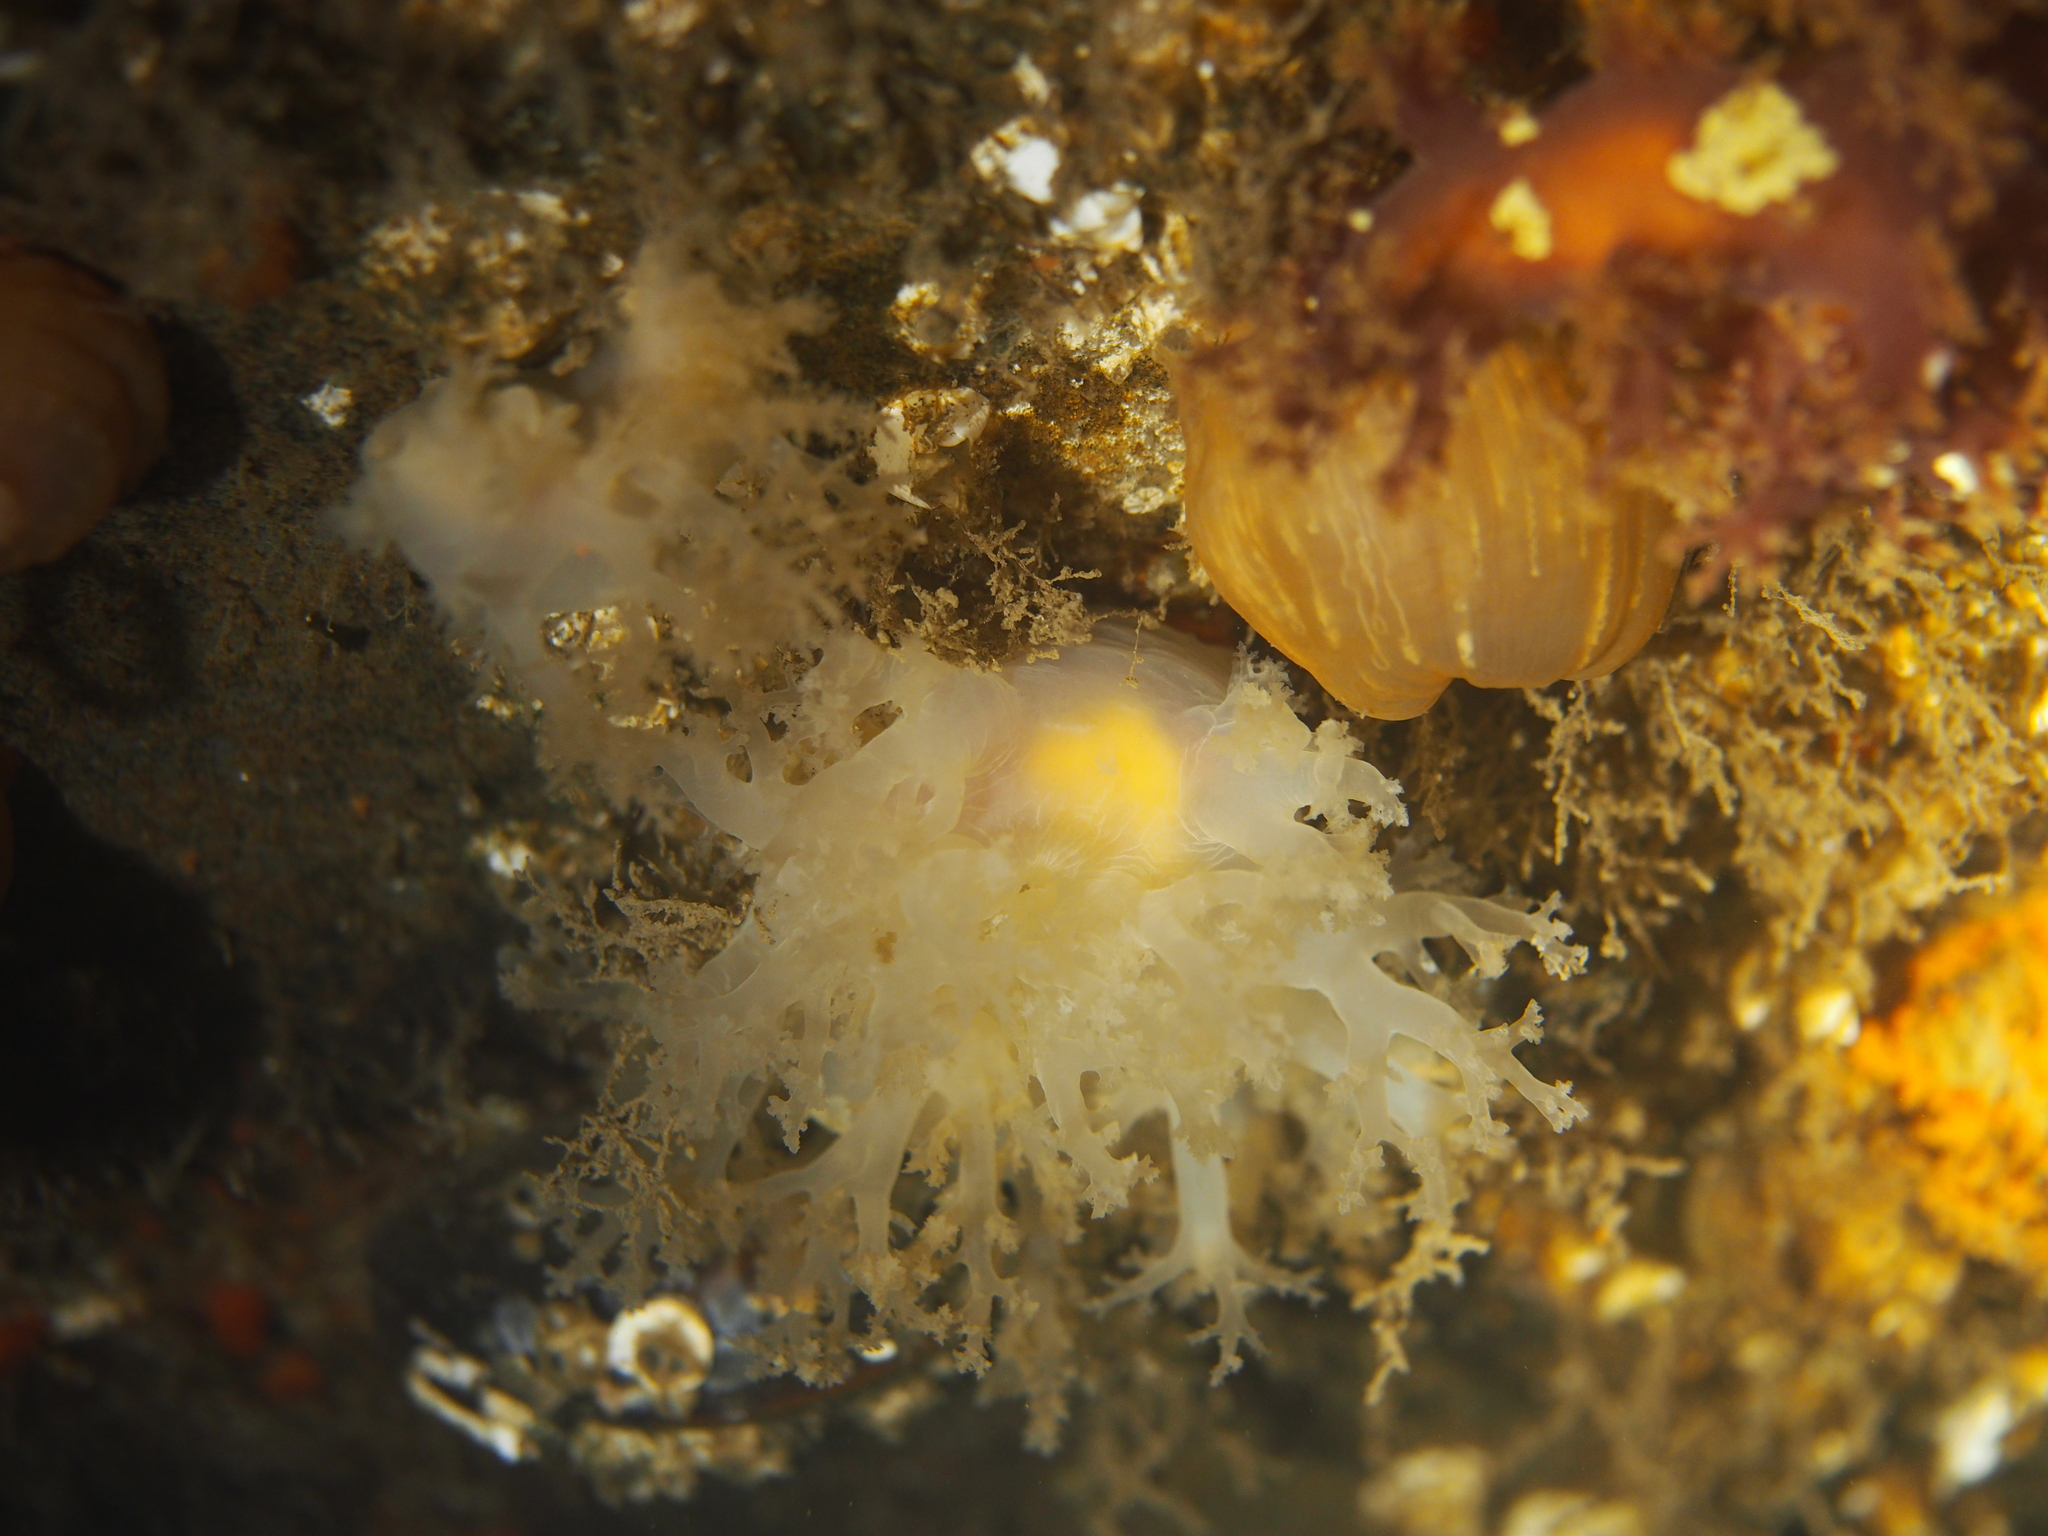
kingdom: Animalia
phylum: Mollusca
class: Gastropoda
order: Nudibranchia
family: Dendronotidae
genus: Dendronotus
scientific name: Dendronotus lacteus
